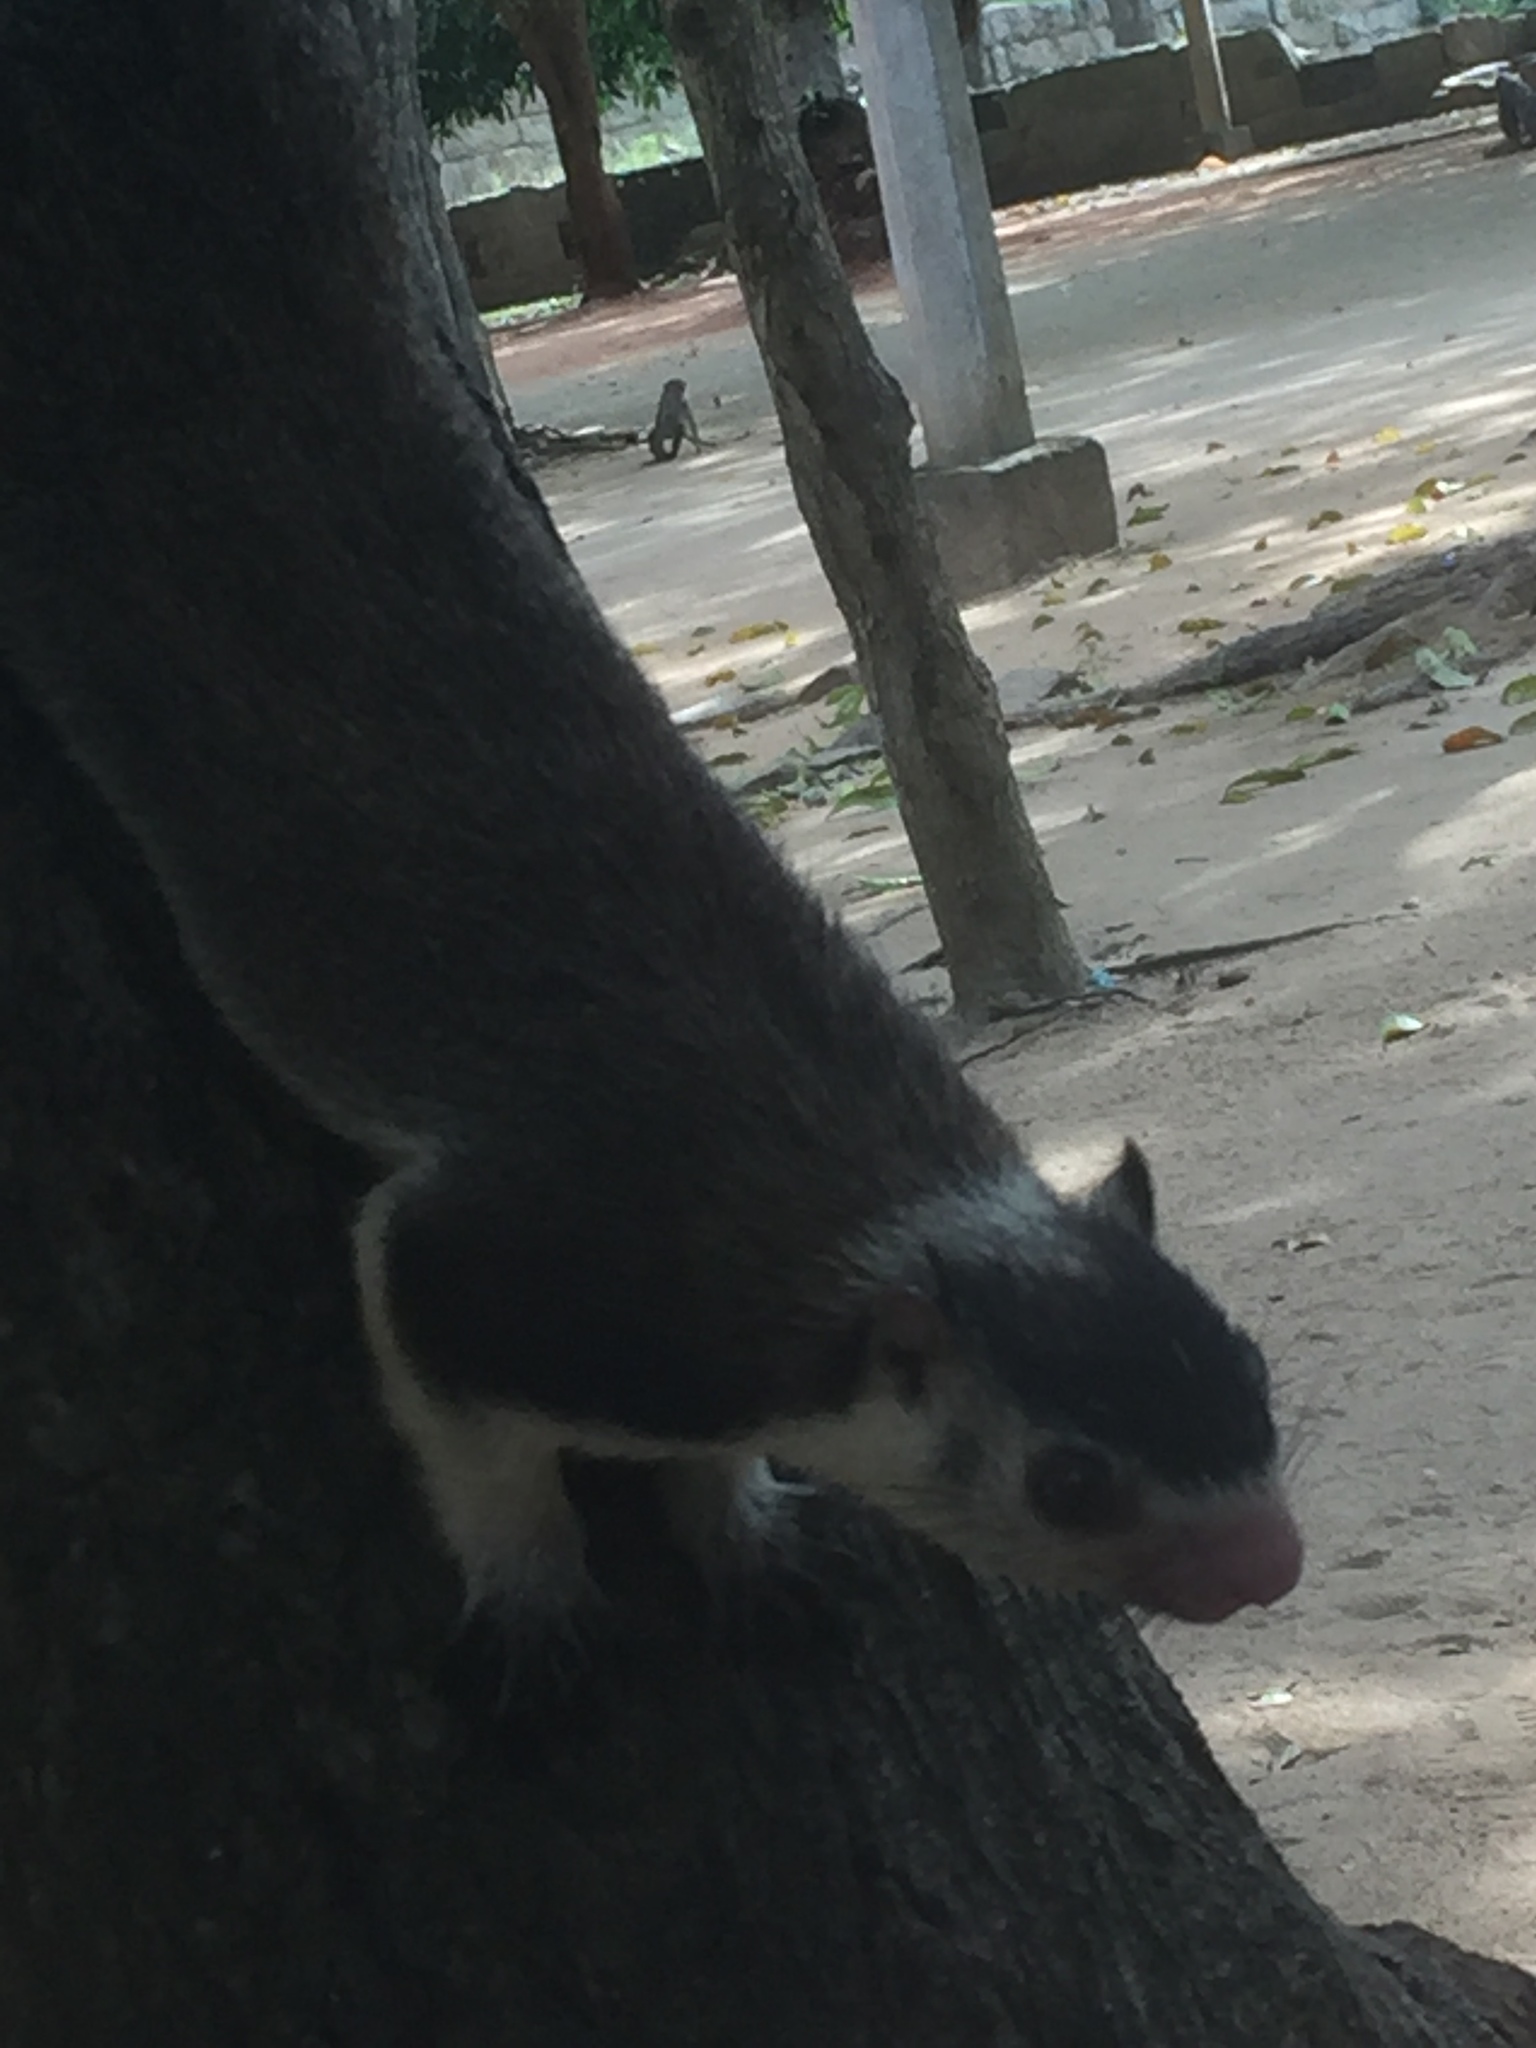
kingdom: Animalia
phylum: Chordata
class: Mammalia
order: Rodentia
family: Sciuridae
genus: Ratufa
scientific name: Ratufa macroura
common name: Sri lankan giant squirrel
